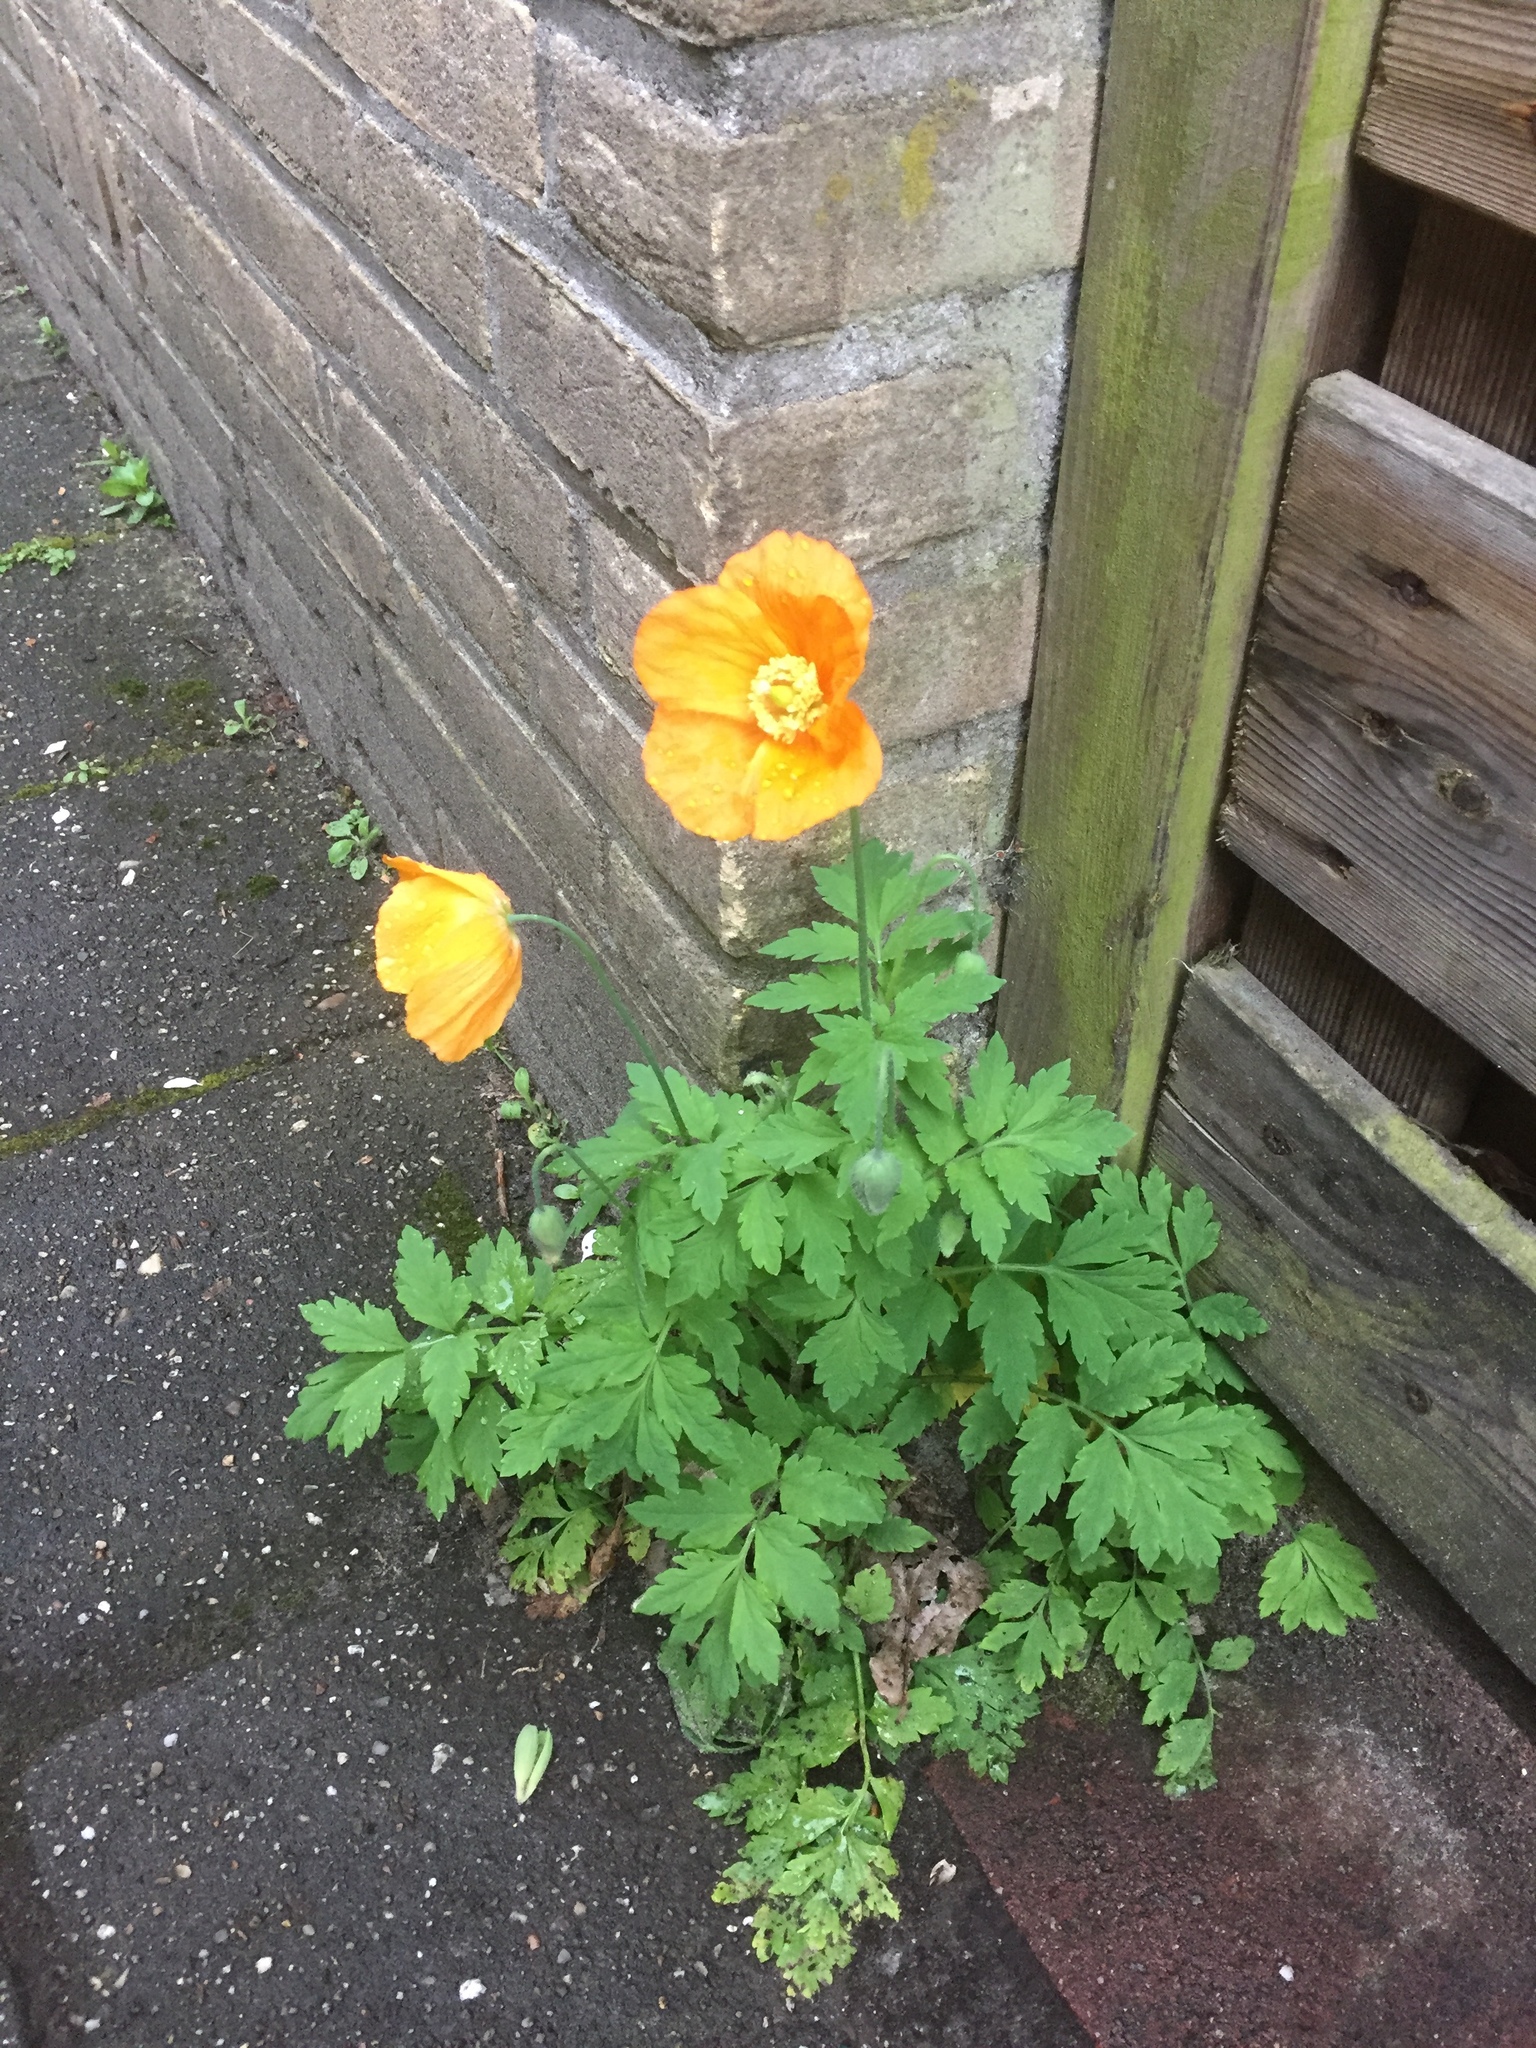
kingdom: Plantae
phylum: Tracheophyta
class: Magnoliopsida
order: Ranunculales
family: Papaveraceae
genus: Papaver
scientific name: Papaver cambricum
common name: Poppy
